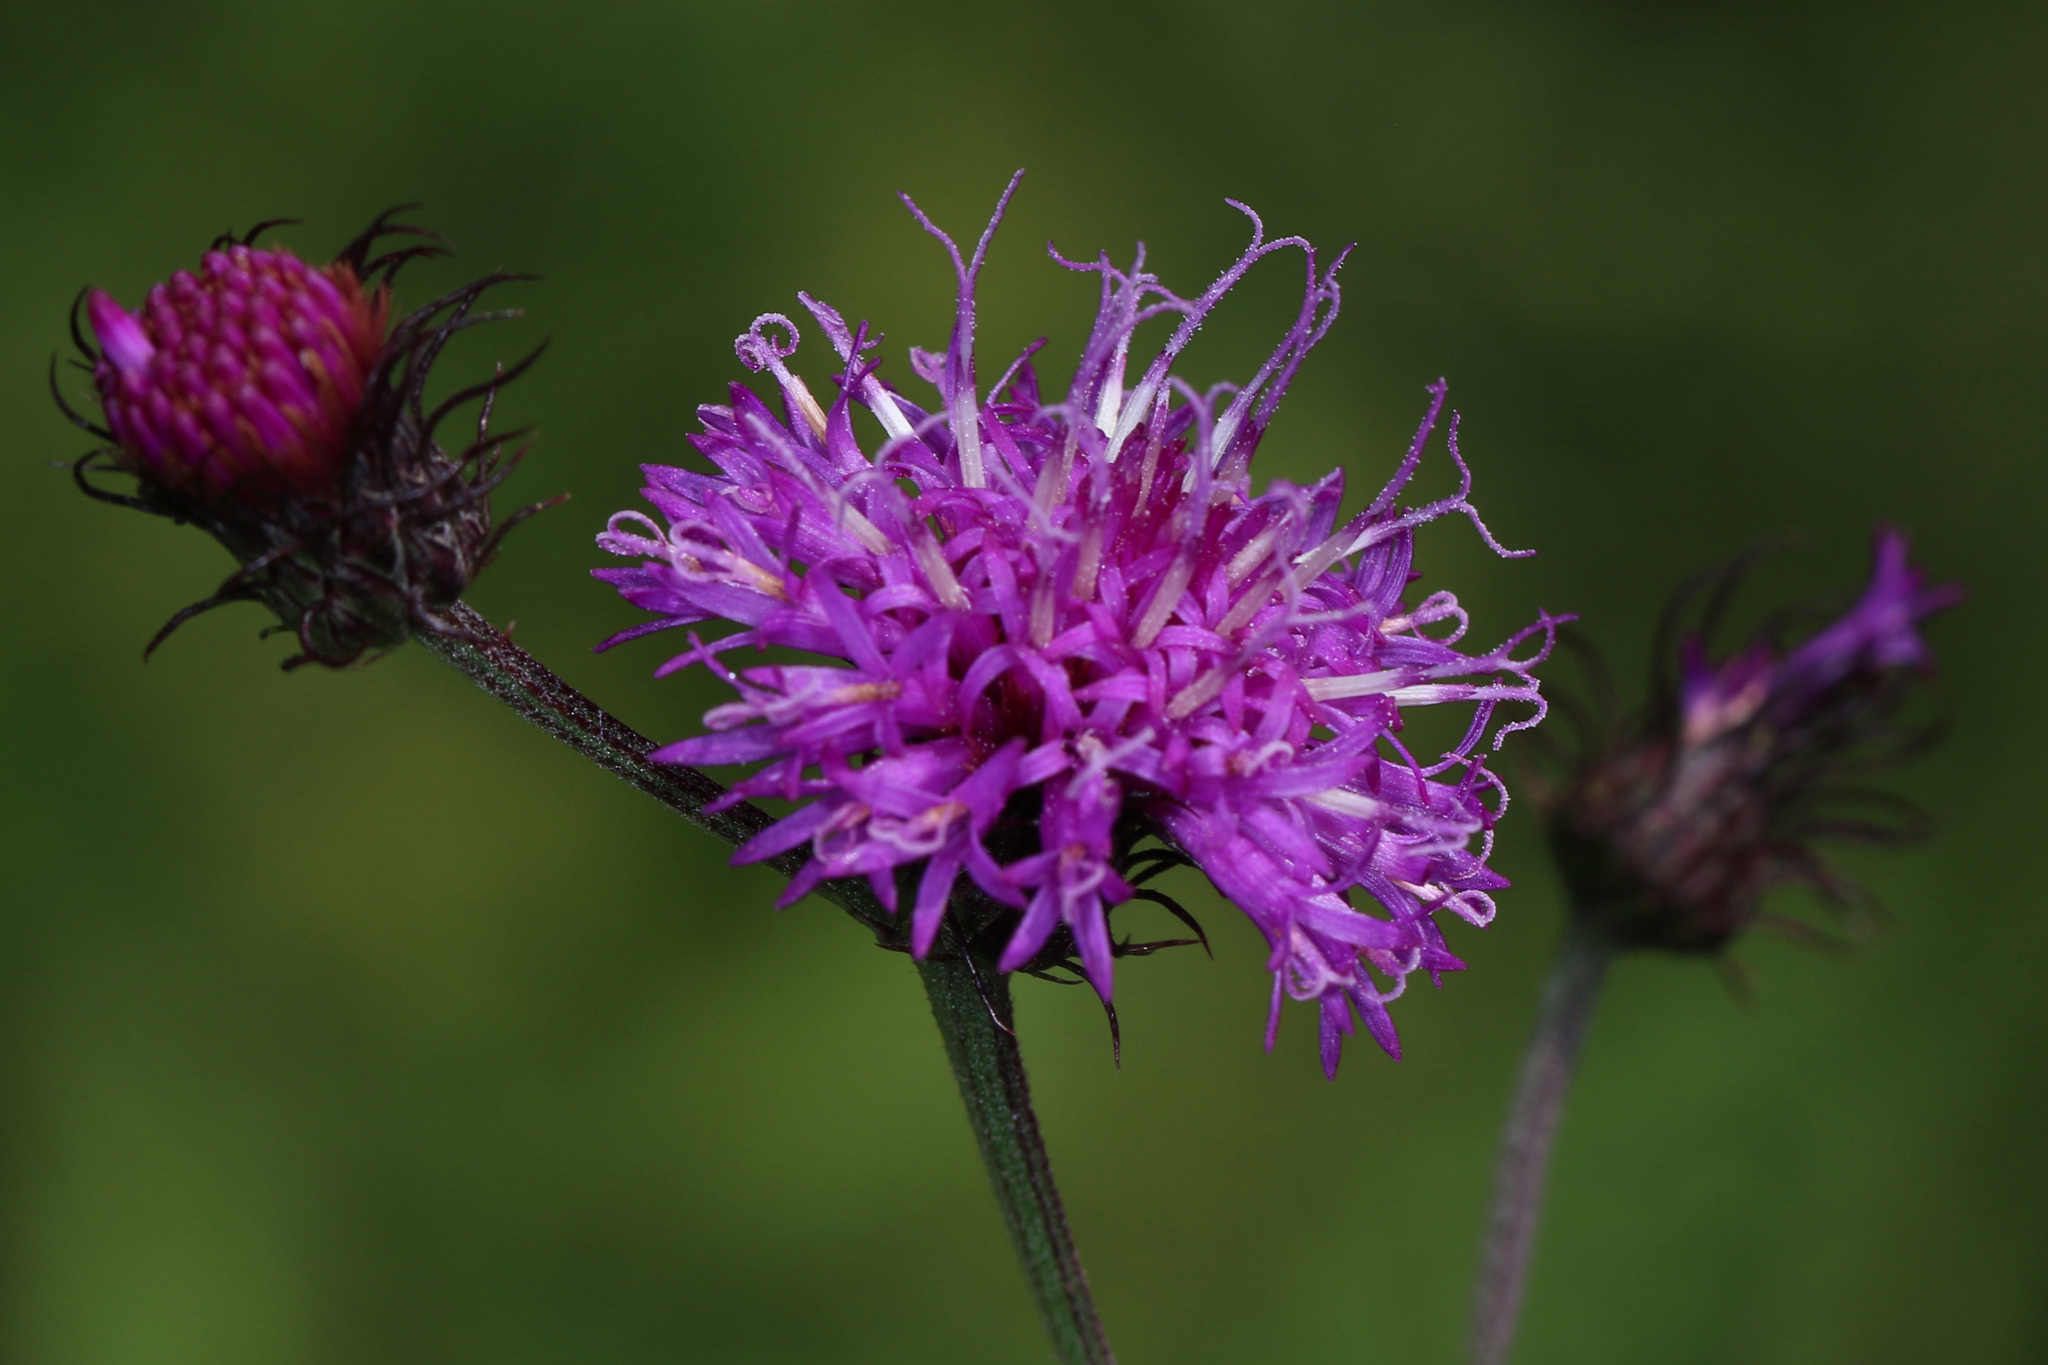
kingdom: Plantae
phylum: Tracheophyta
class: Magnoliopsida
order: Asterales
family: Asteraceae
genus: Vernonia
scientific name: Vernonia noveboracensis
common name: New york ironweed
